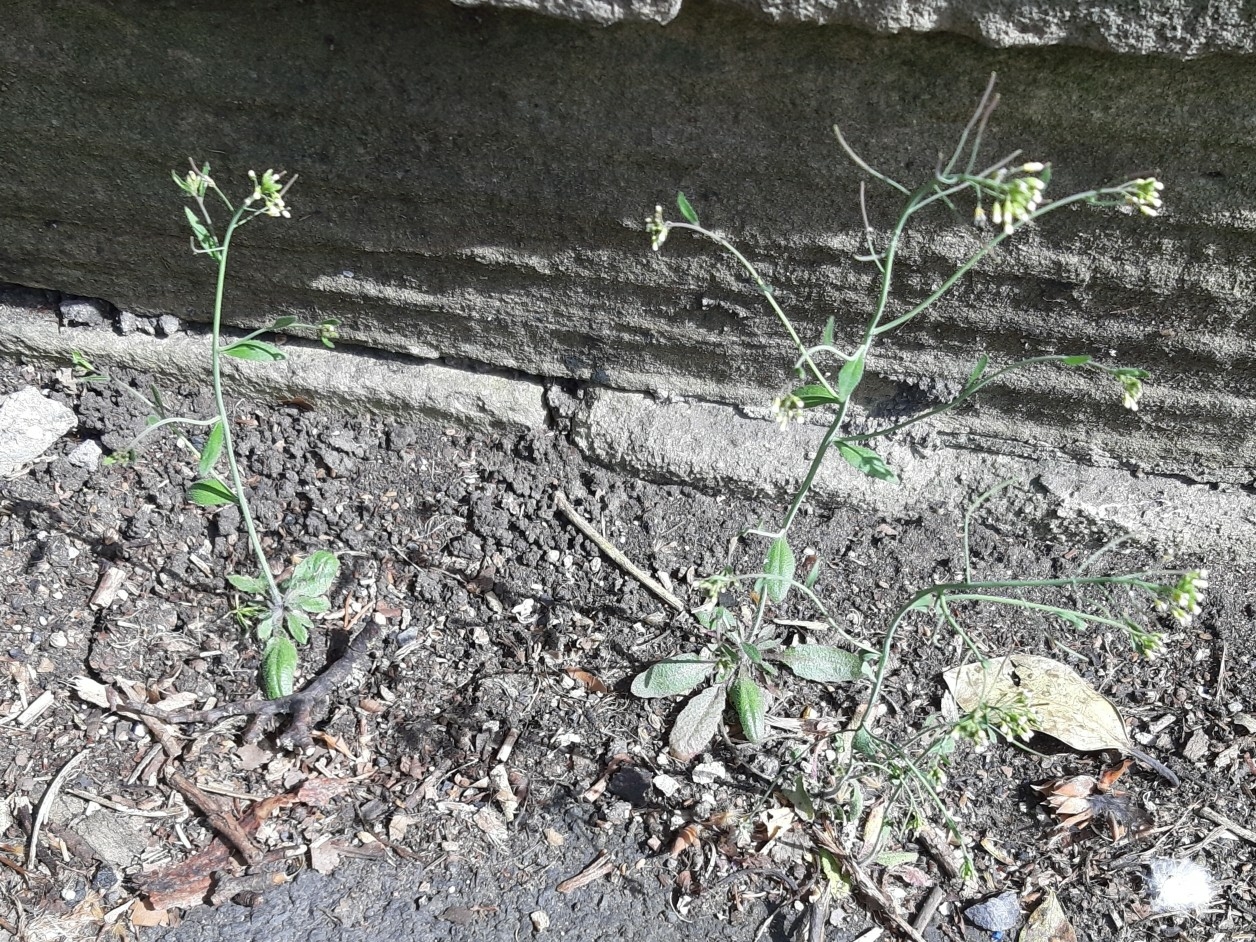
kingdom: Plantae
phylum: Tracheophyta
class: Magnoliopsida
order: Brassicales
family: Brassicaceae
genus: Arabidopsis
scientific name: Arabidopsis thaliana
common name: Thale cress
